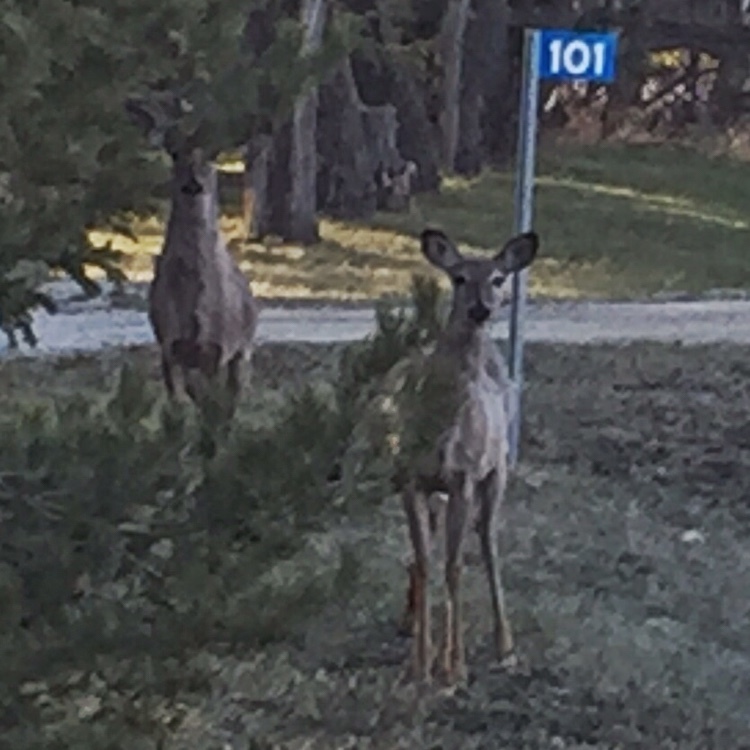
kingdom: Animalia
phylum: Chordata
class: Mammalia
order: Artiodactyla
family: Cervidae
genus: Odocoileus
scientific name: Odocoileus virginianus
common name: White-tailed deer
